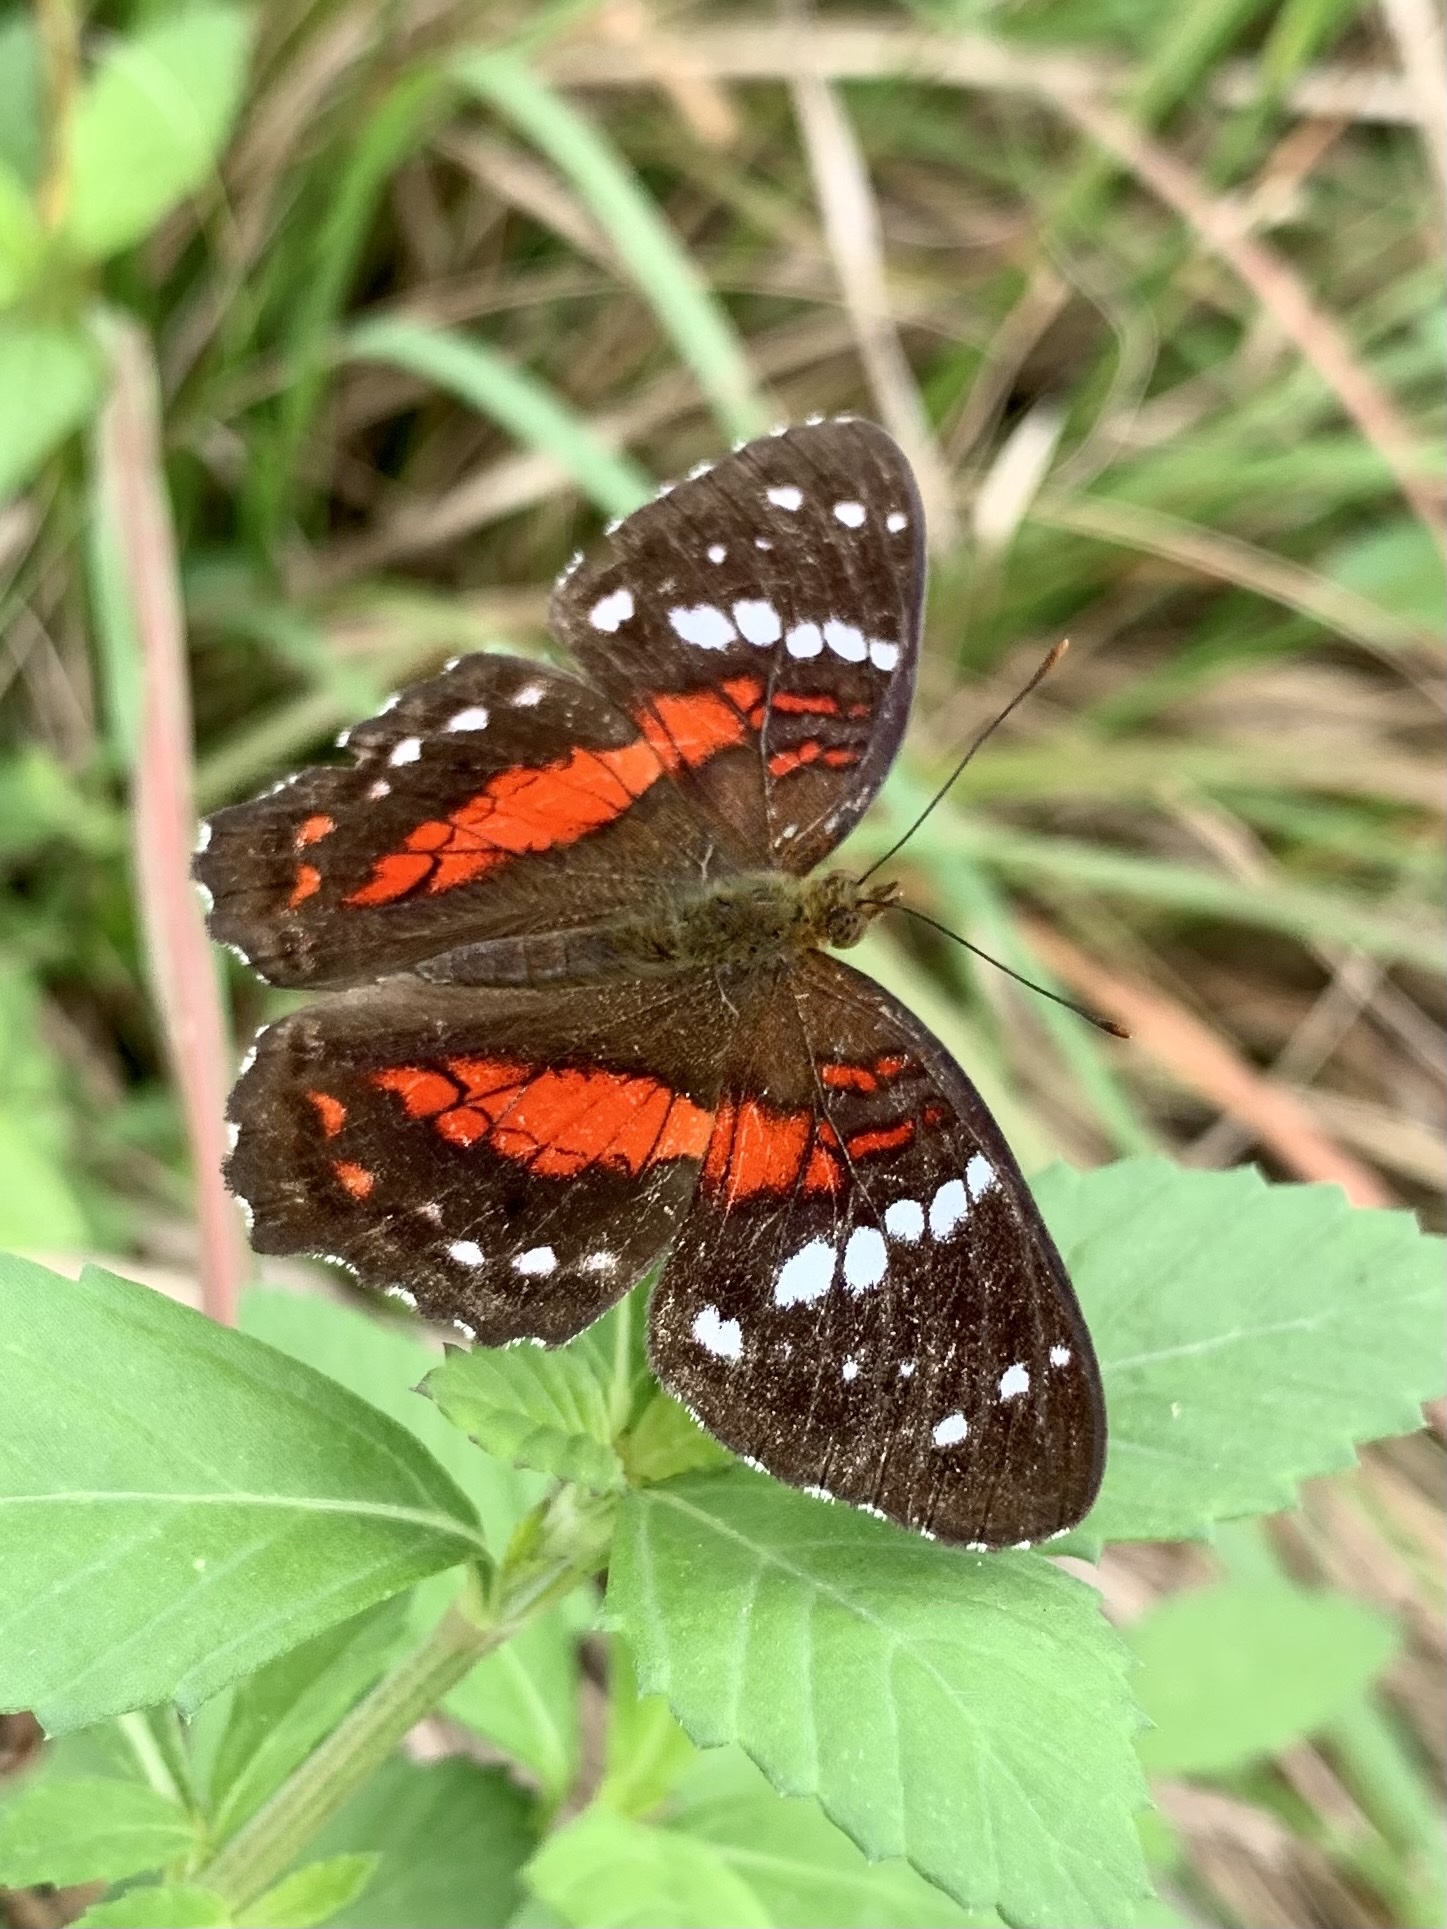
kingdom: Animalia
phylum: Arthropoda
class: Insecta
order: Lepidoptera
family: Nymphalidae
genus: Anartia
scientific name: Anartia amathea
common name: Red peacock
